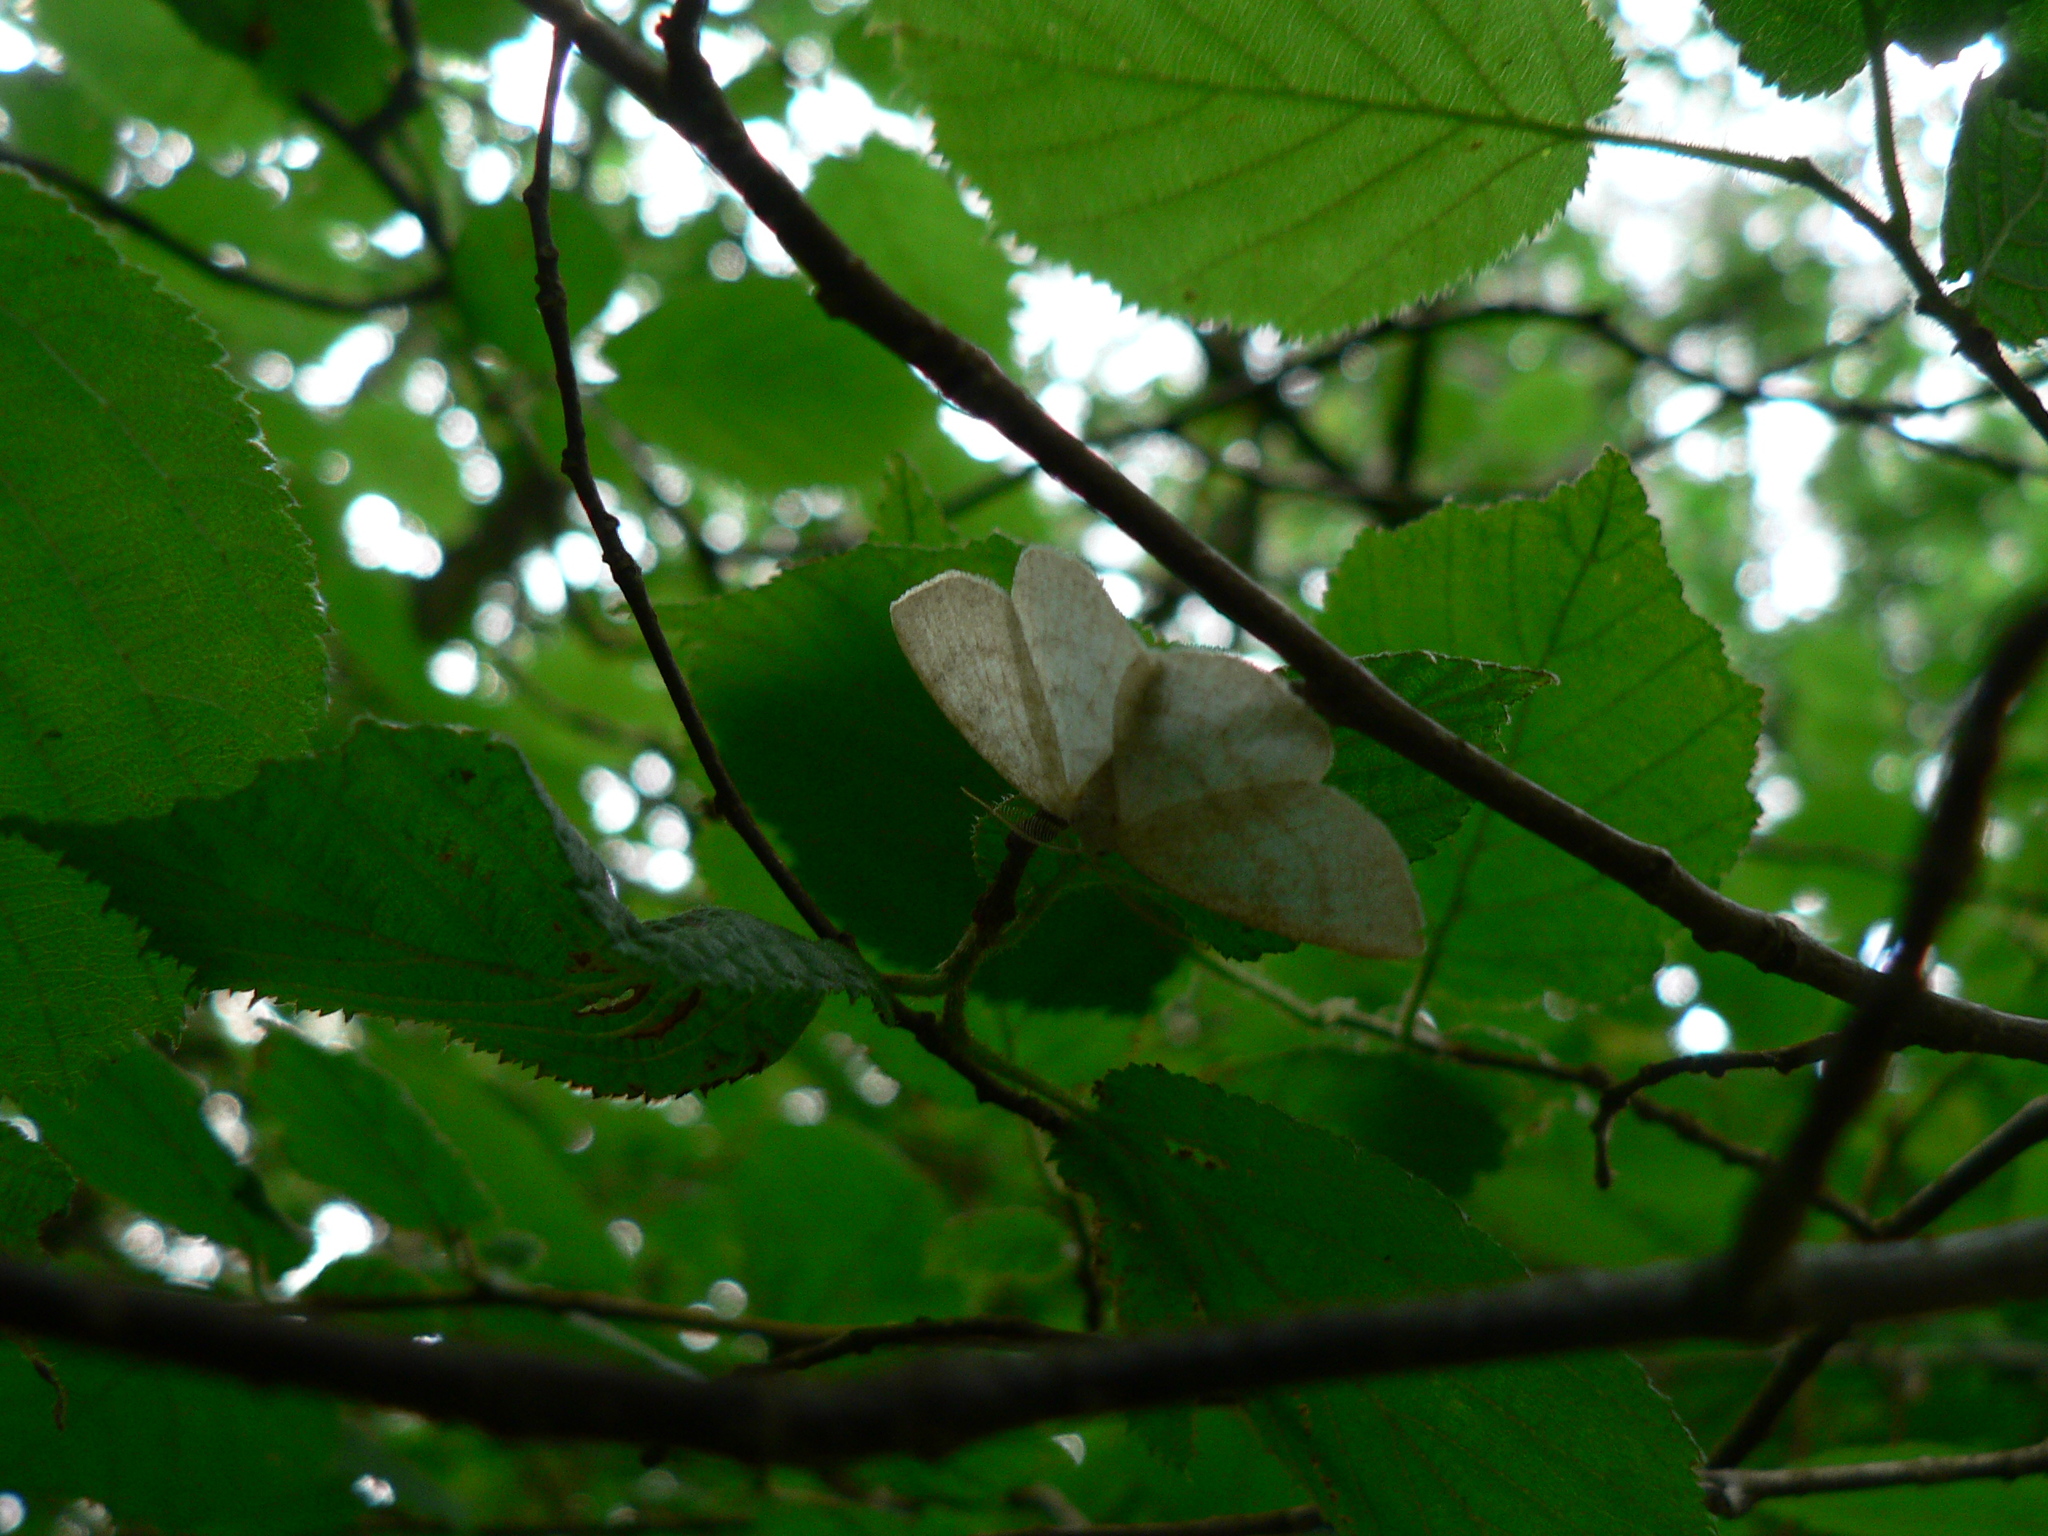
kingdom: Animalia
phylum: Arthropoda
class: Insecta
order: Lepidoptera
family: Geometridae
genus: Cabera
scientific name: Cabera exanthemata
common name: Common wave
